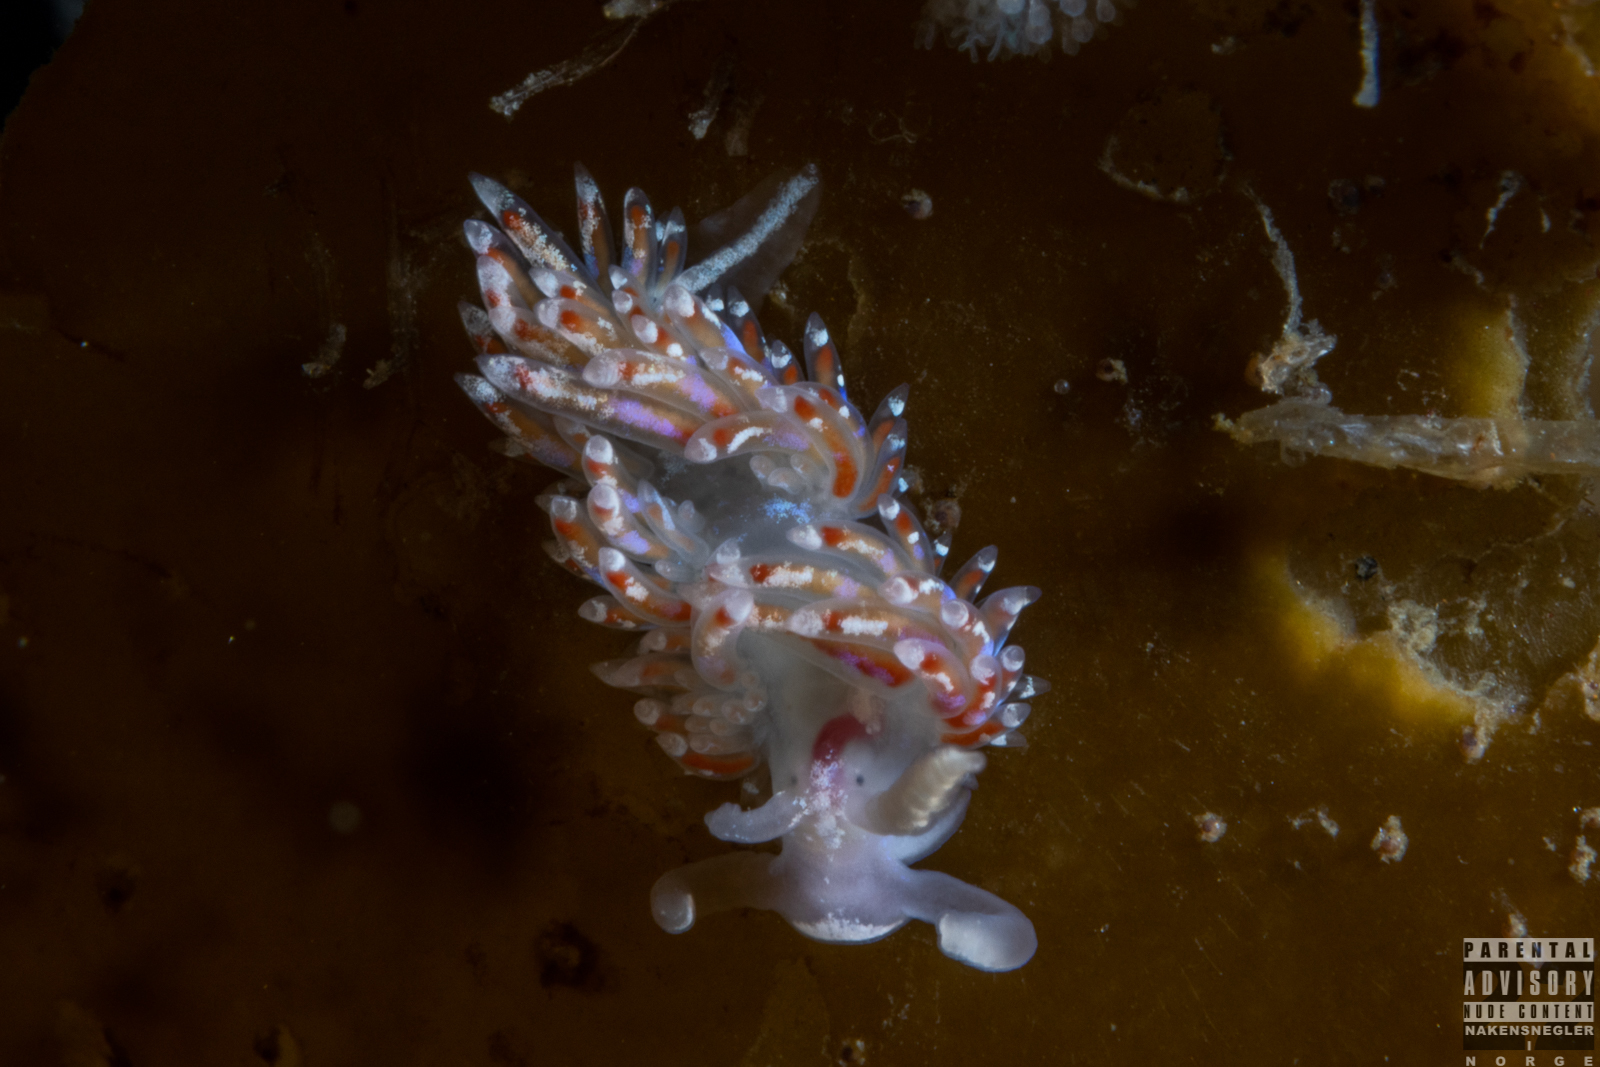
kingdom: Animalia
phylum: Mollusca
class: Gastropoda
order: Nudibranchia
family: Facelinidae
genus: Facelina
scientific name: Facelina auriculata
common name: Slender facelina
